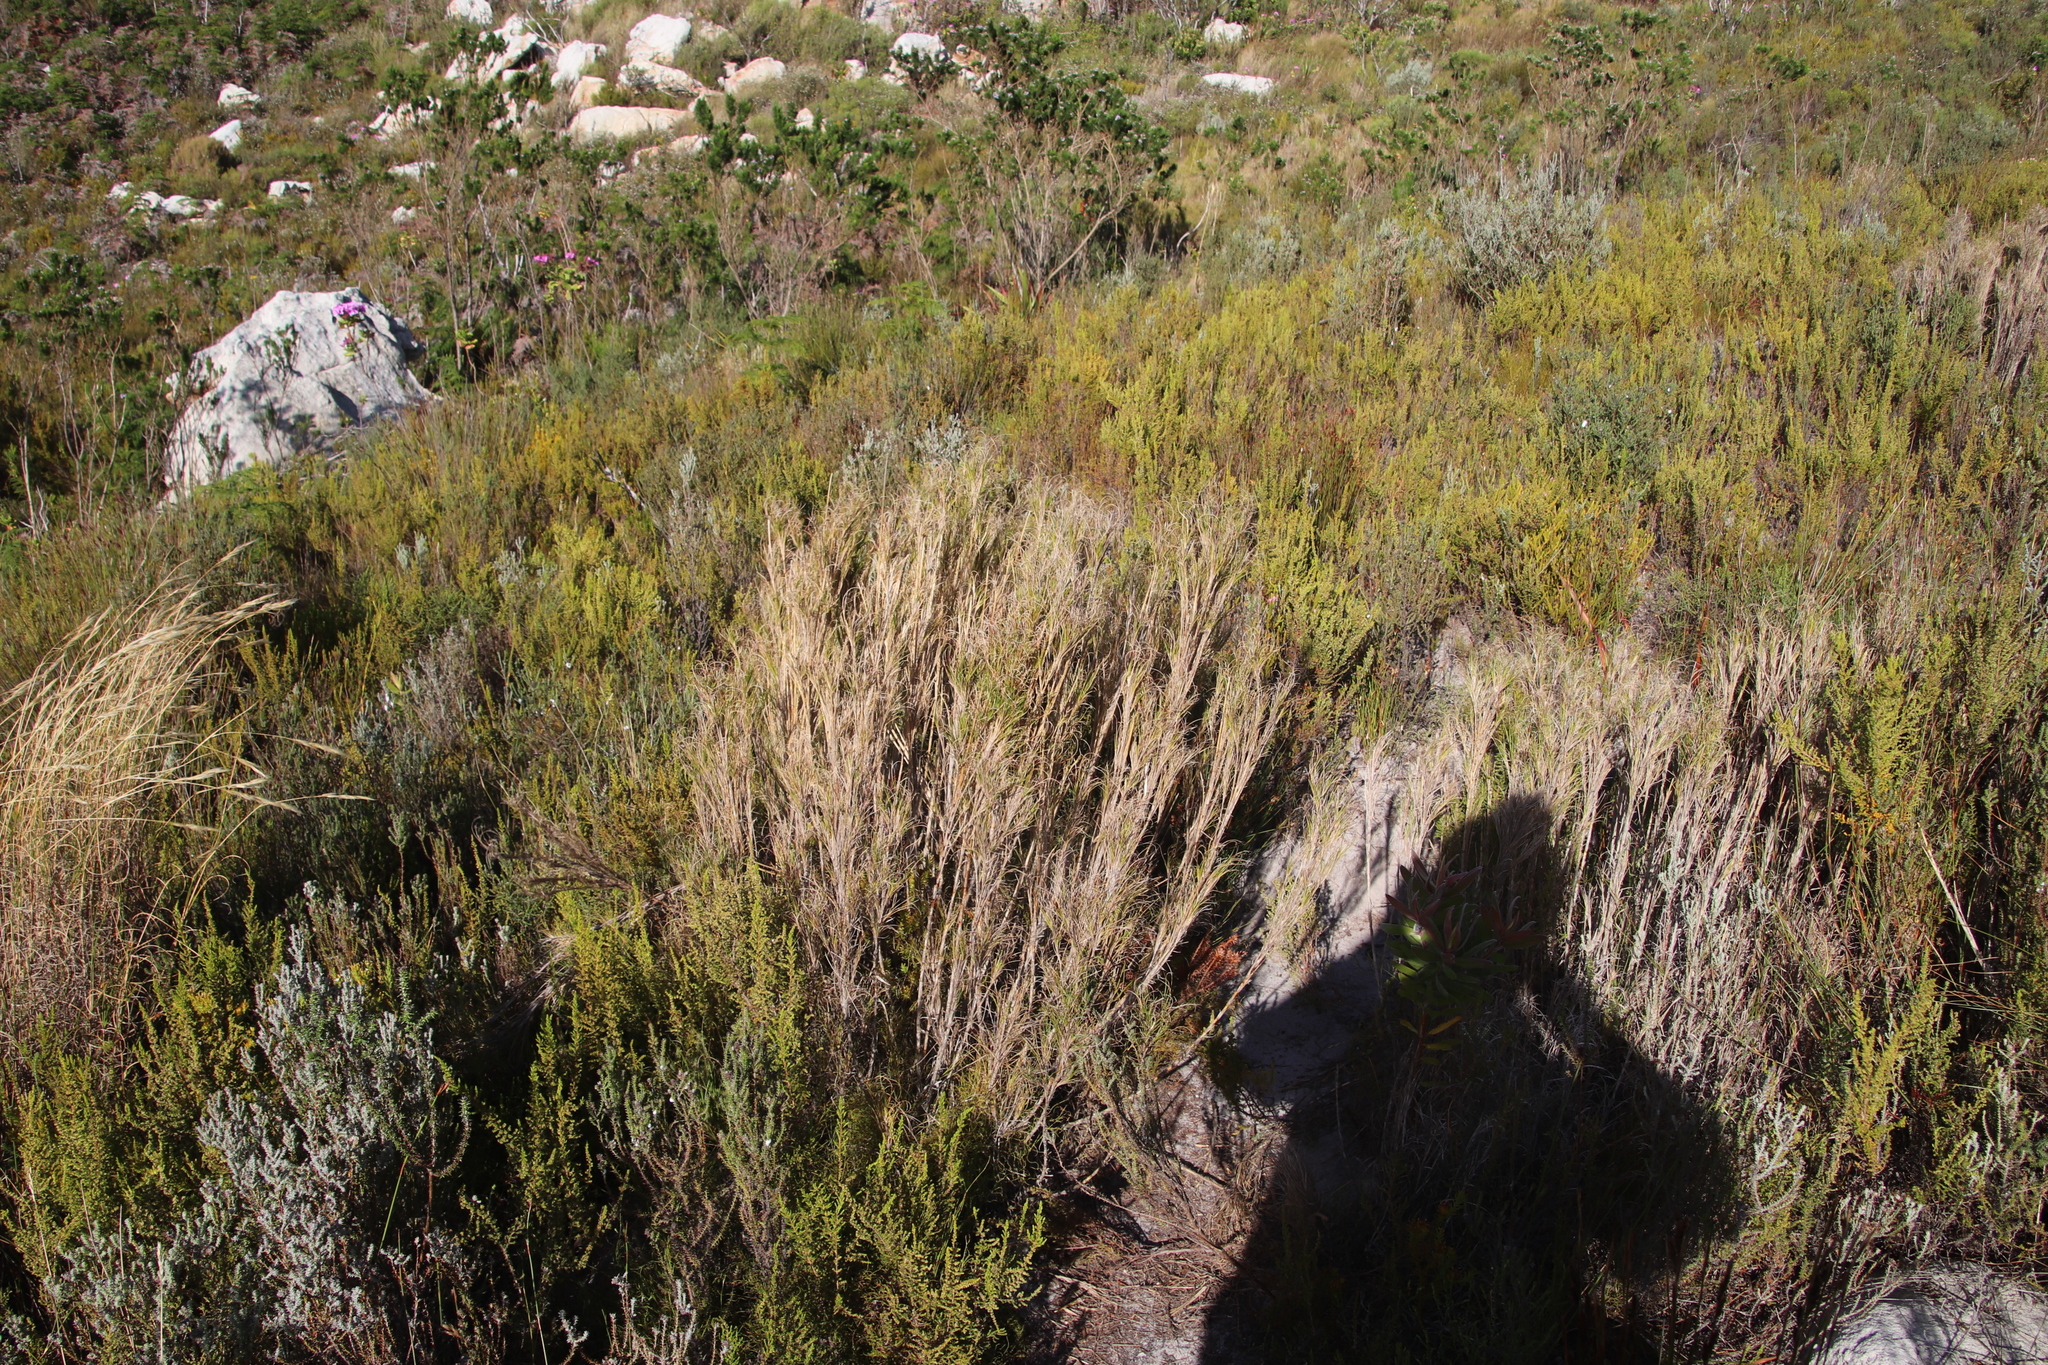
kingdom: Plantae
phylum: Tracheophyta
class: Liliopsida
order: Poales
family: Poaceae
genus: Pseudopentameris
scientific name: Pseudopentameris macrantha
